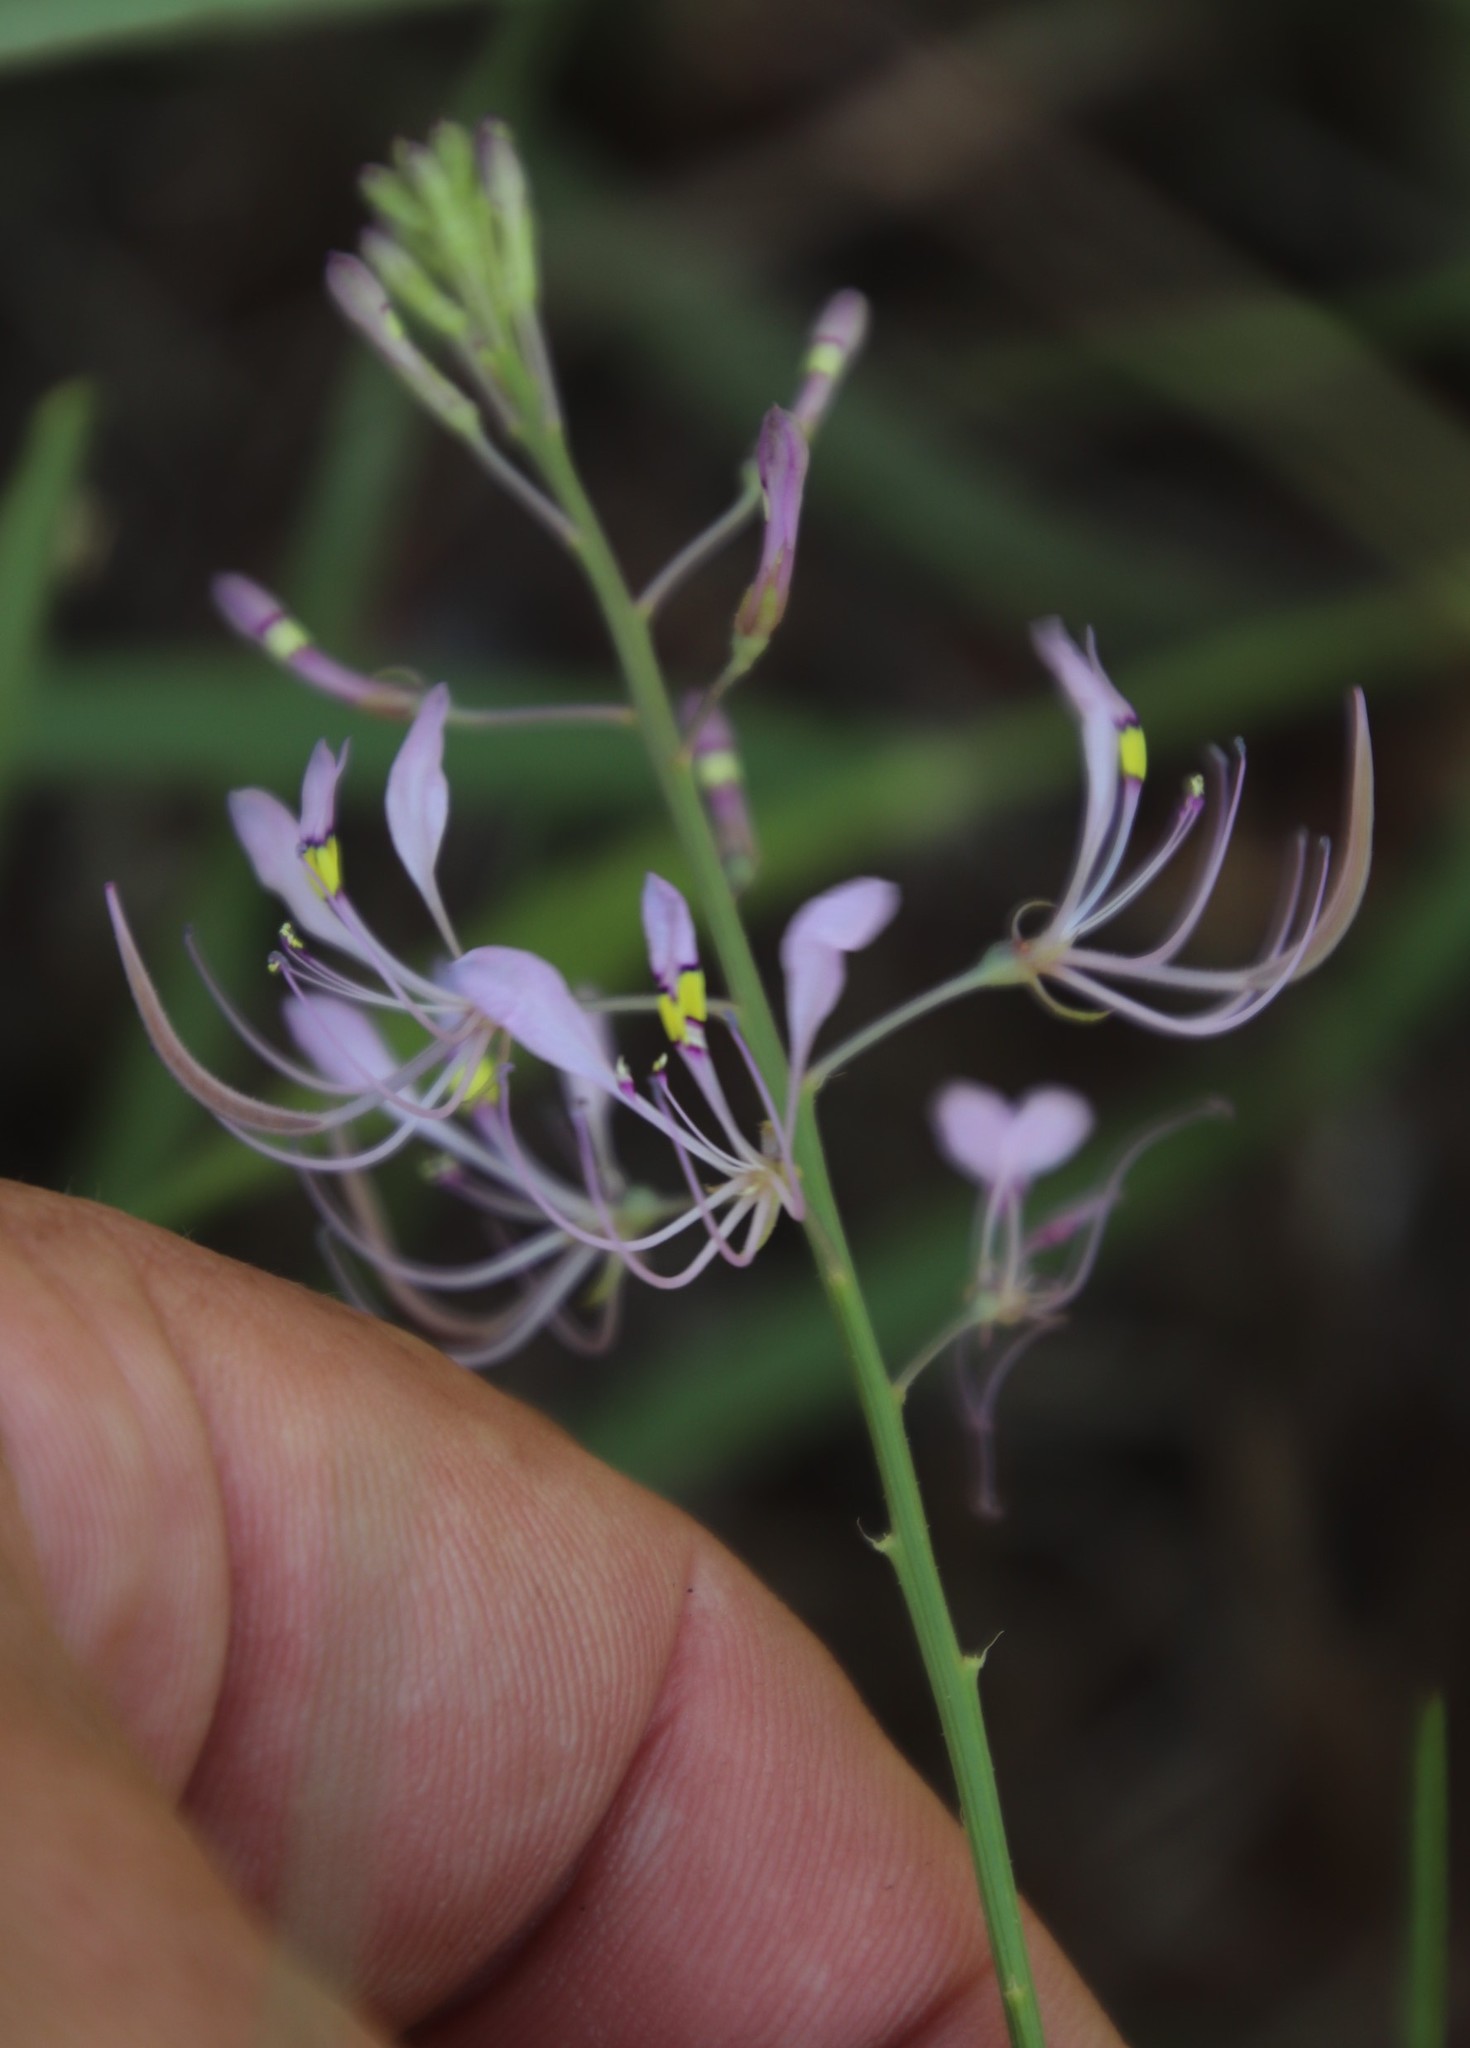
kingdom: Plantae
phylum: Tracheophyta
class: Magnoliopsida
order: Brassicales
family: Cleomaceae
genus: Sieruela
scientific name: Sieruela maculata
